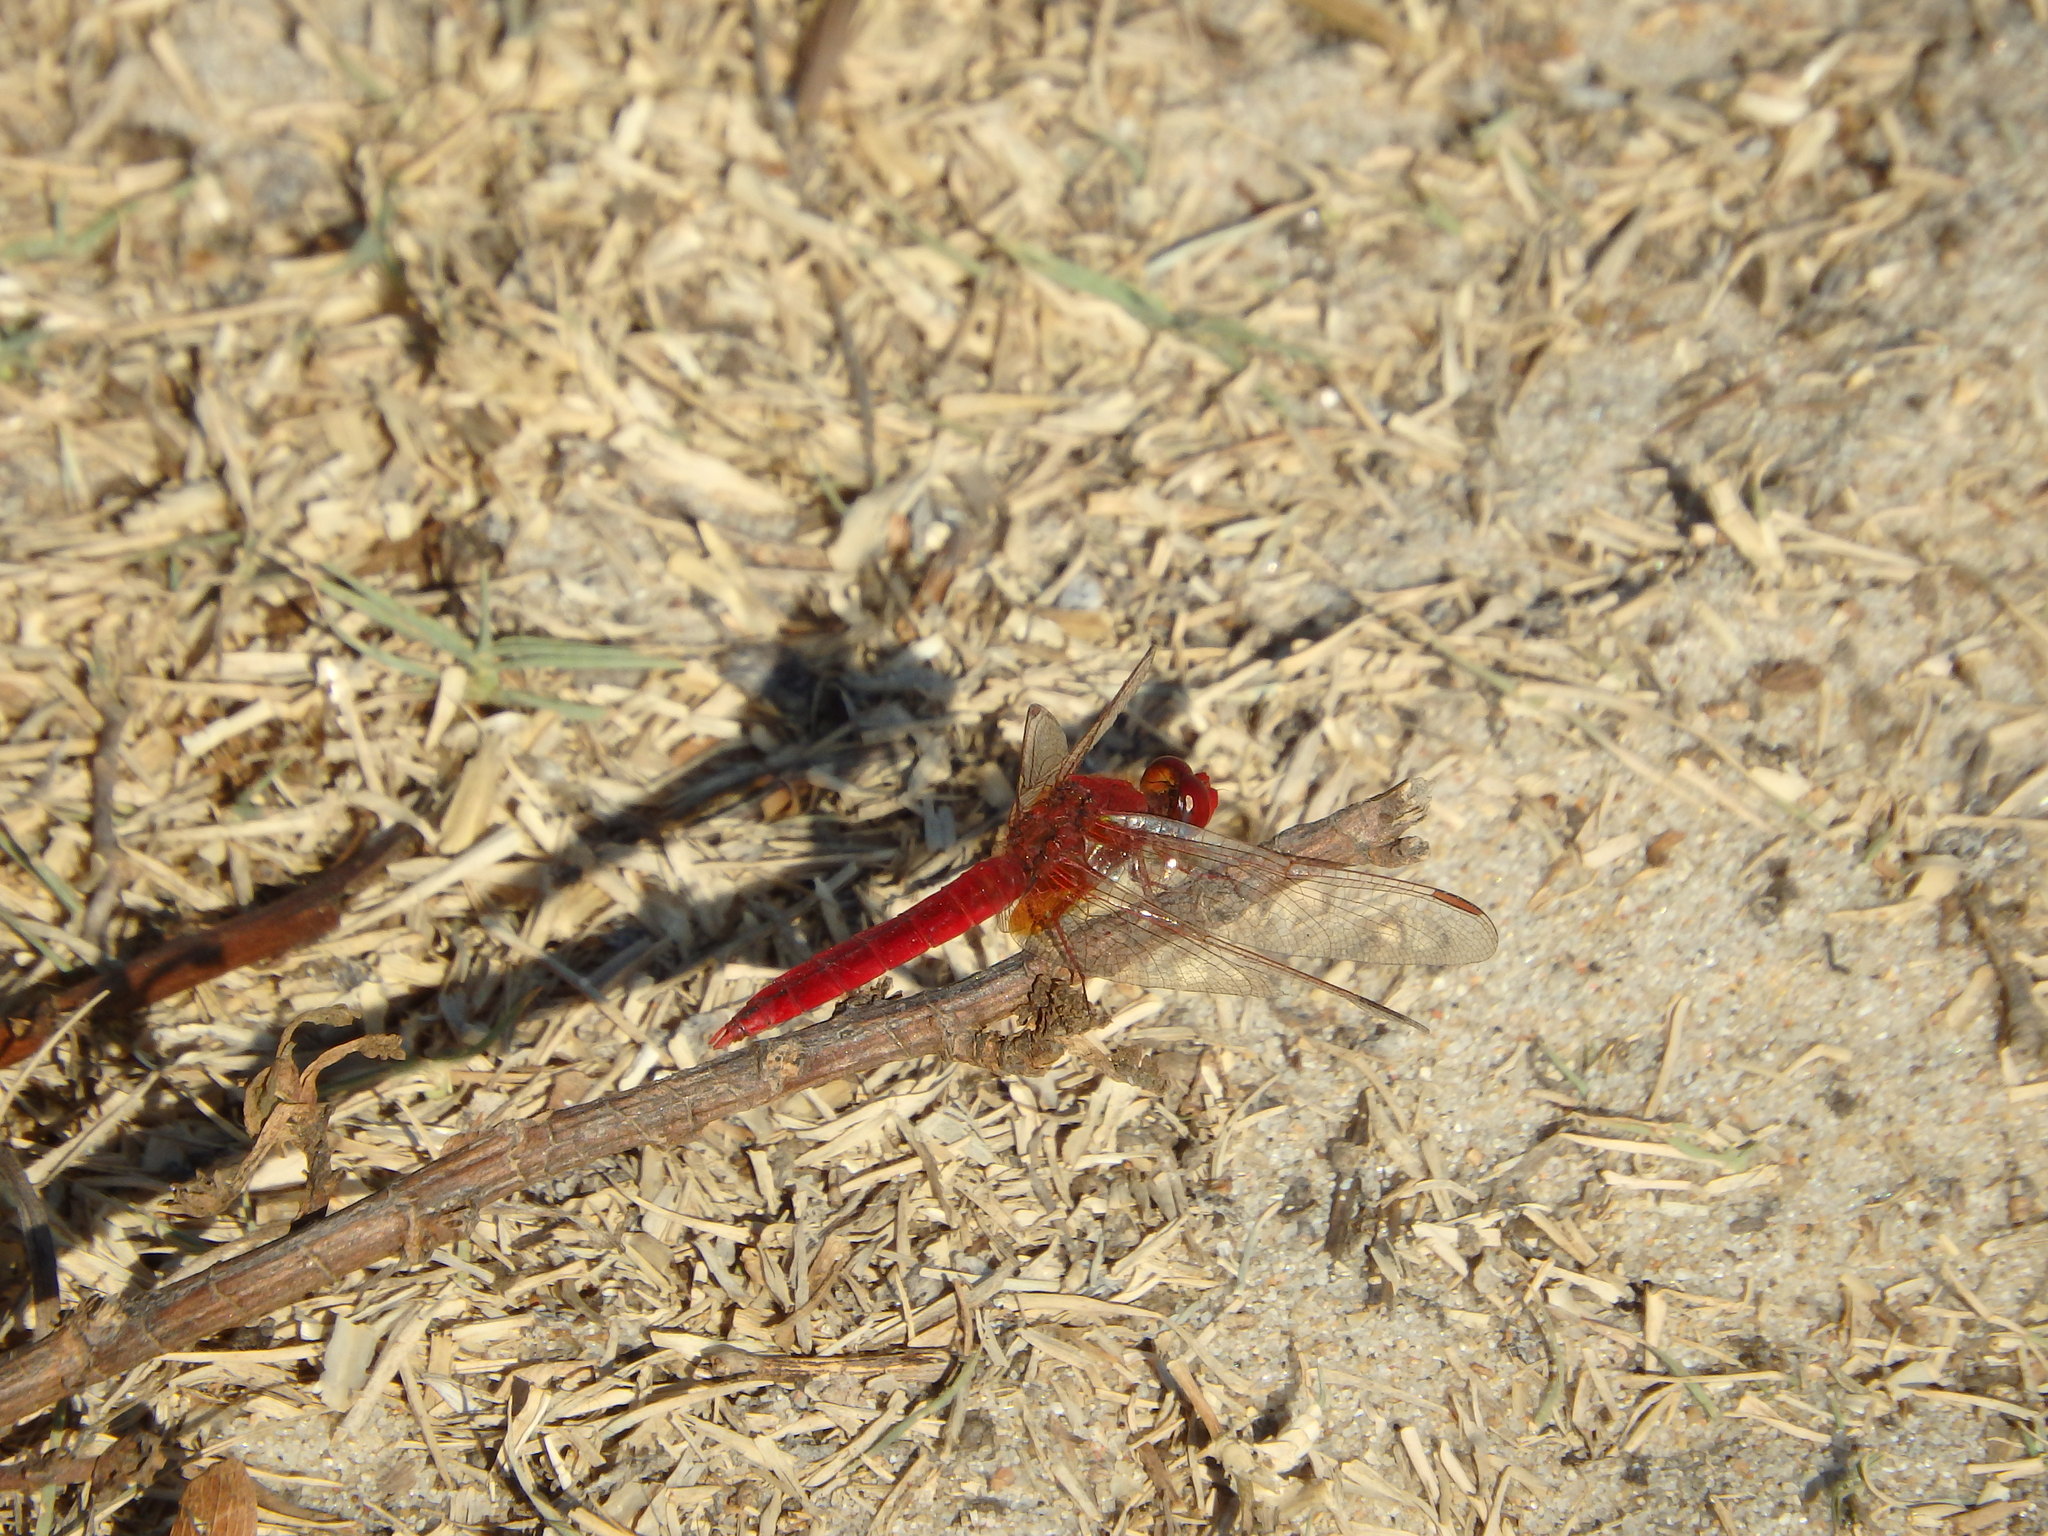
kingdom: Animalia
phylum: Arthropoda
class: Insecta
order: Odonata
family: Libellulidae
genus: Crocothemis
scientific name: Crocothemis erythraea
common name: Scarlet dragonfly
